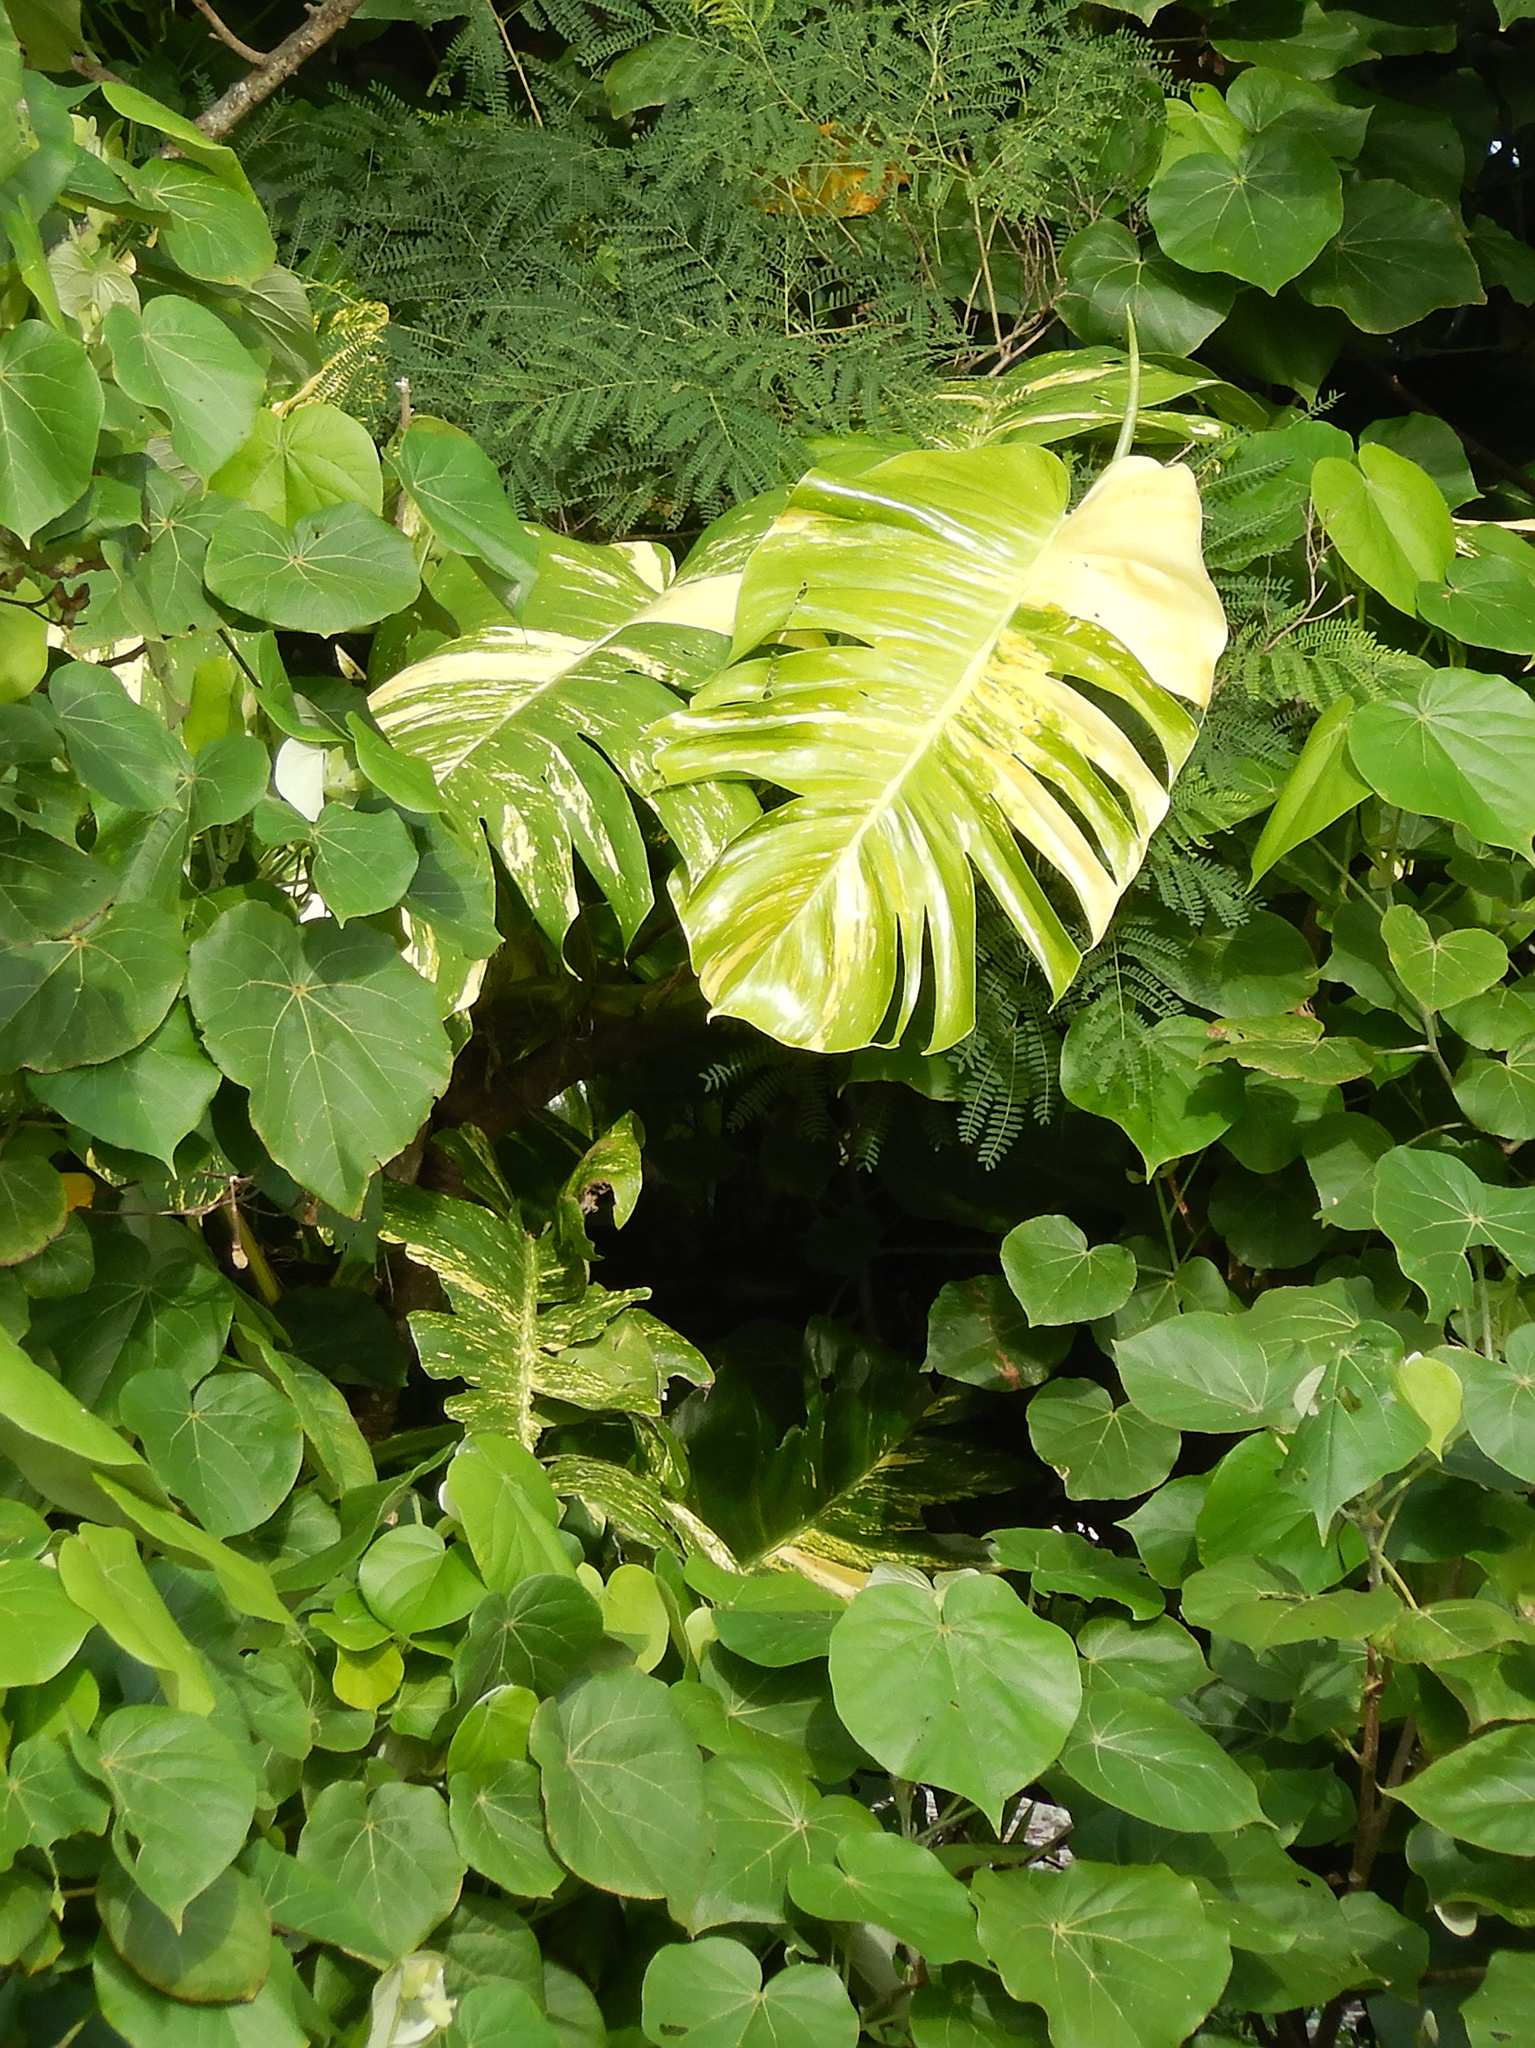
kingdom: Plantae
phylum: Tracheophyta
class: Liliopsida
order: Alismatales
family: Araceae
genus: Epipremnum
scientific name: Epipremnum aureum
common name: Golden hunter's-robe
